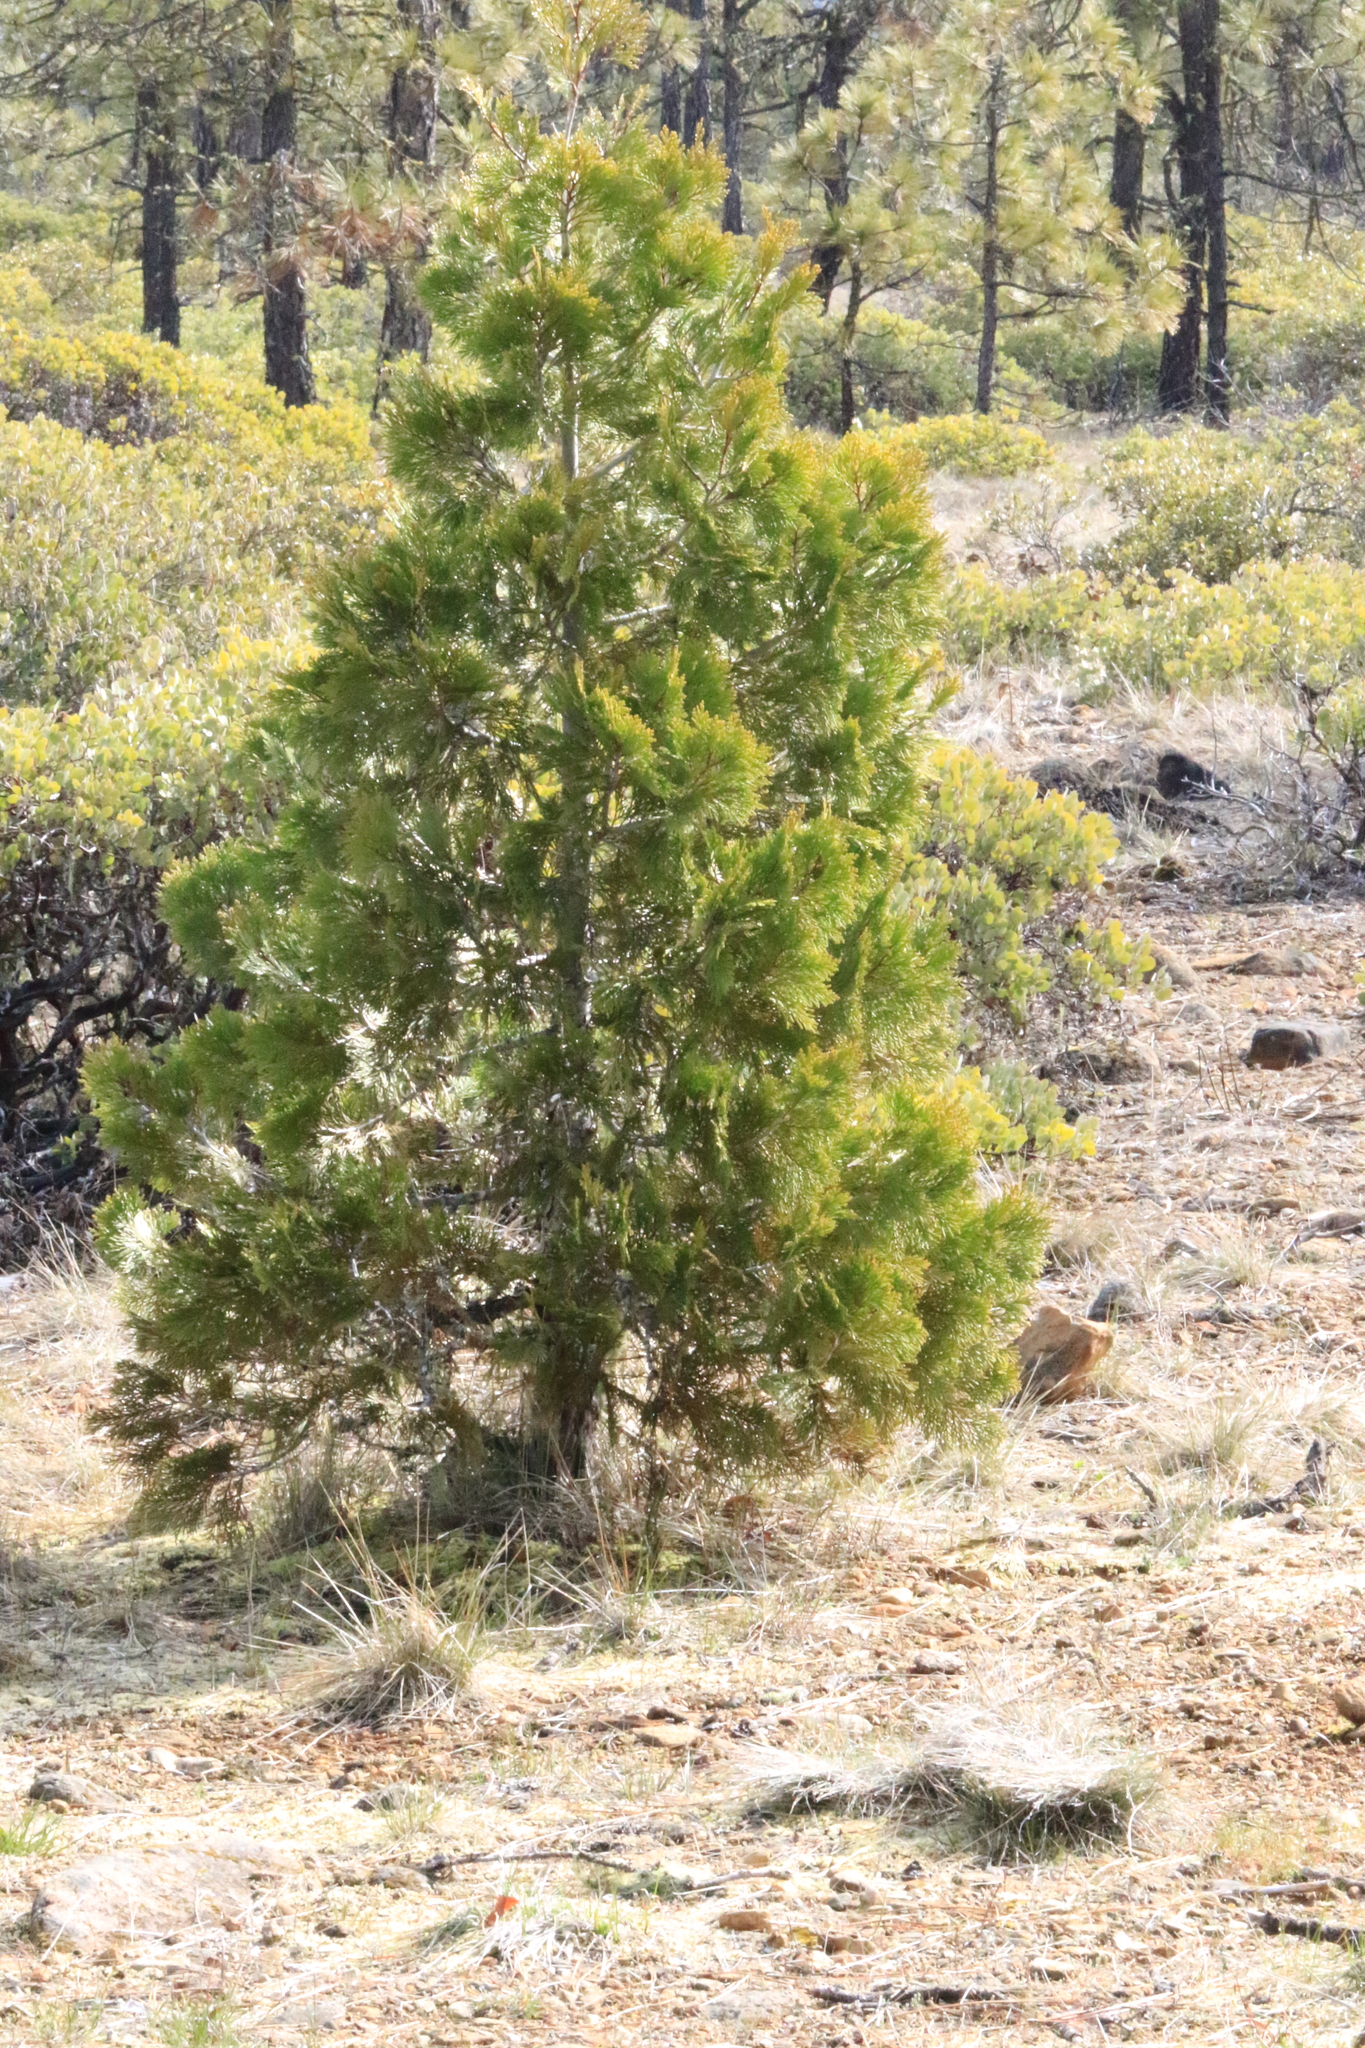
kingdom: Plantae
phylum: Tracheophyta
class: Pinopsida
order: Pinales
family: Cupressaceae
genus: Calocedrus
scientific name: Calocedrus decurrens
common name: Californian incense-cedar
